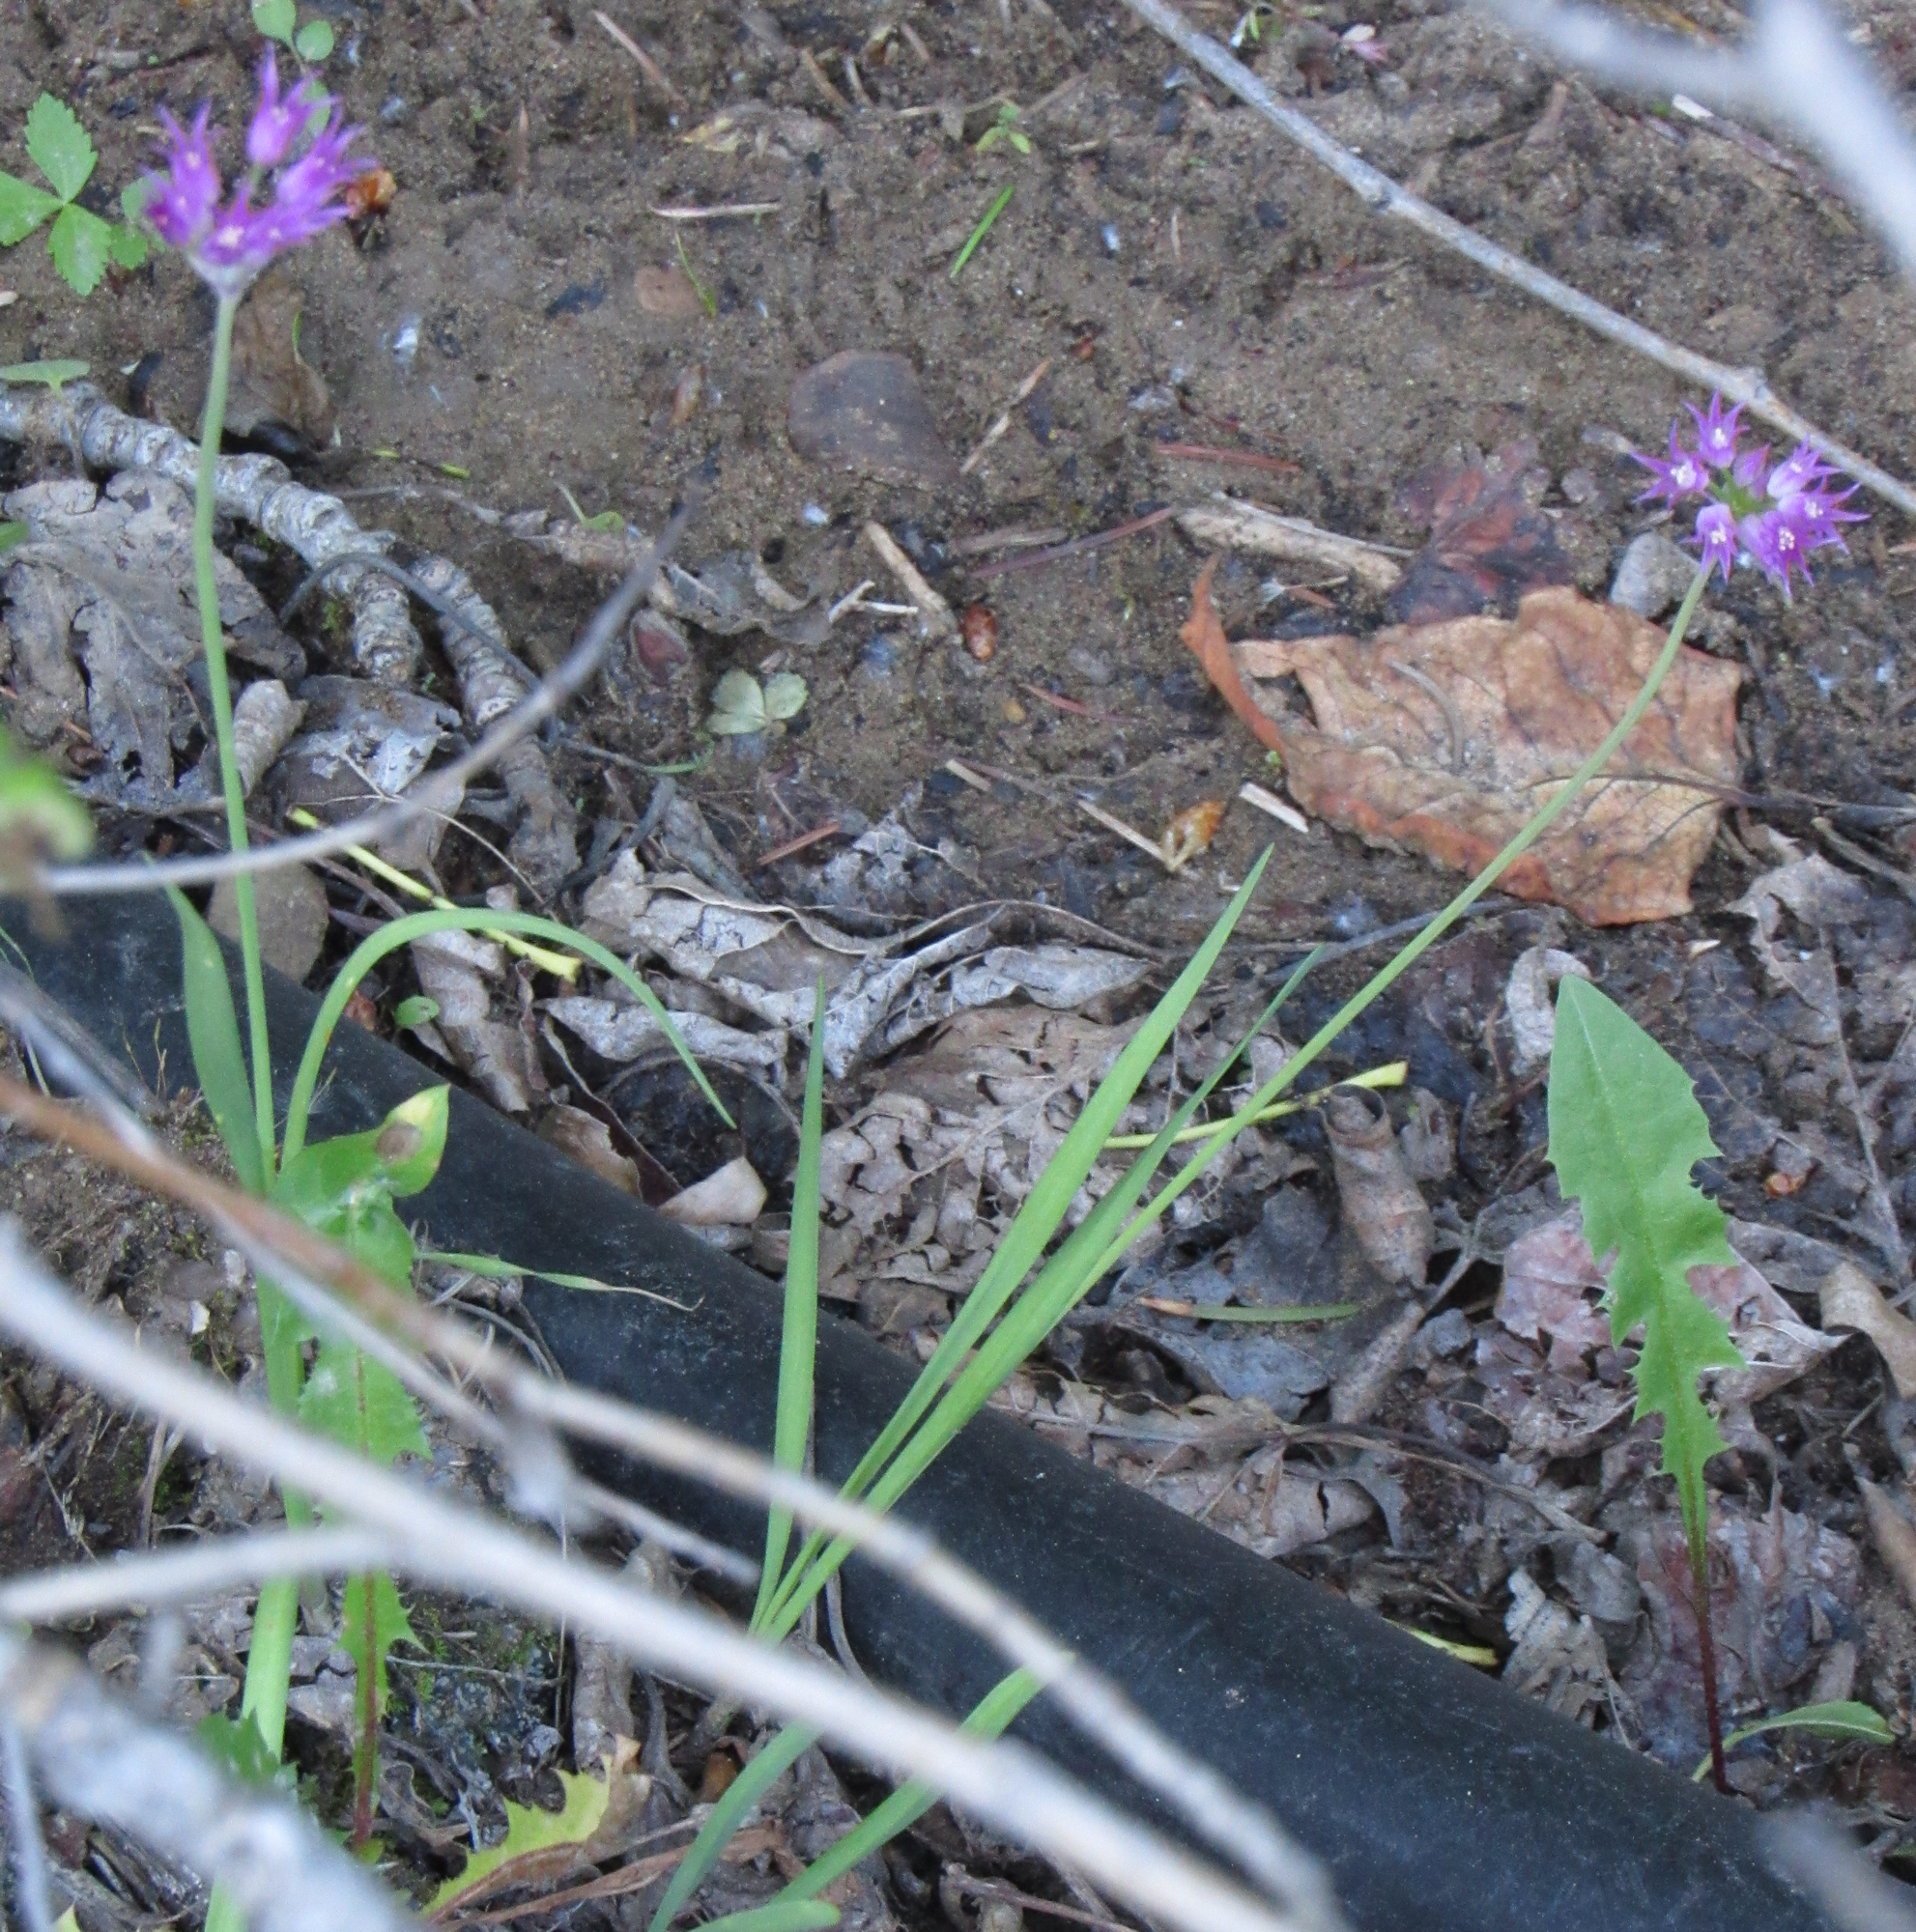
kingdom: Plantae
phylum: Tracheophyta
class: Liliopsida
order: Asparagales
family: Amaryllidaceae
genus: Allium
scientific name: Allium brevistylum
